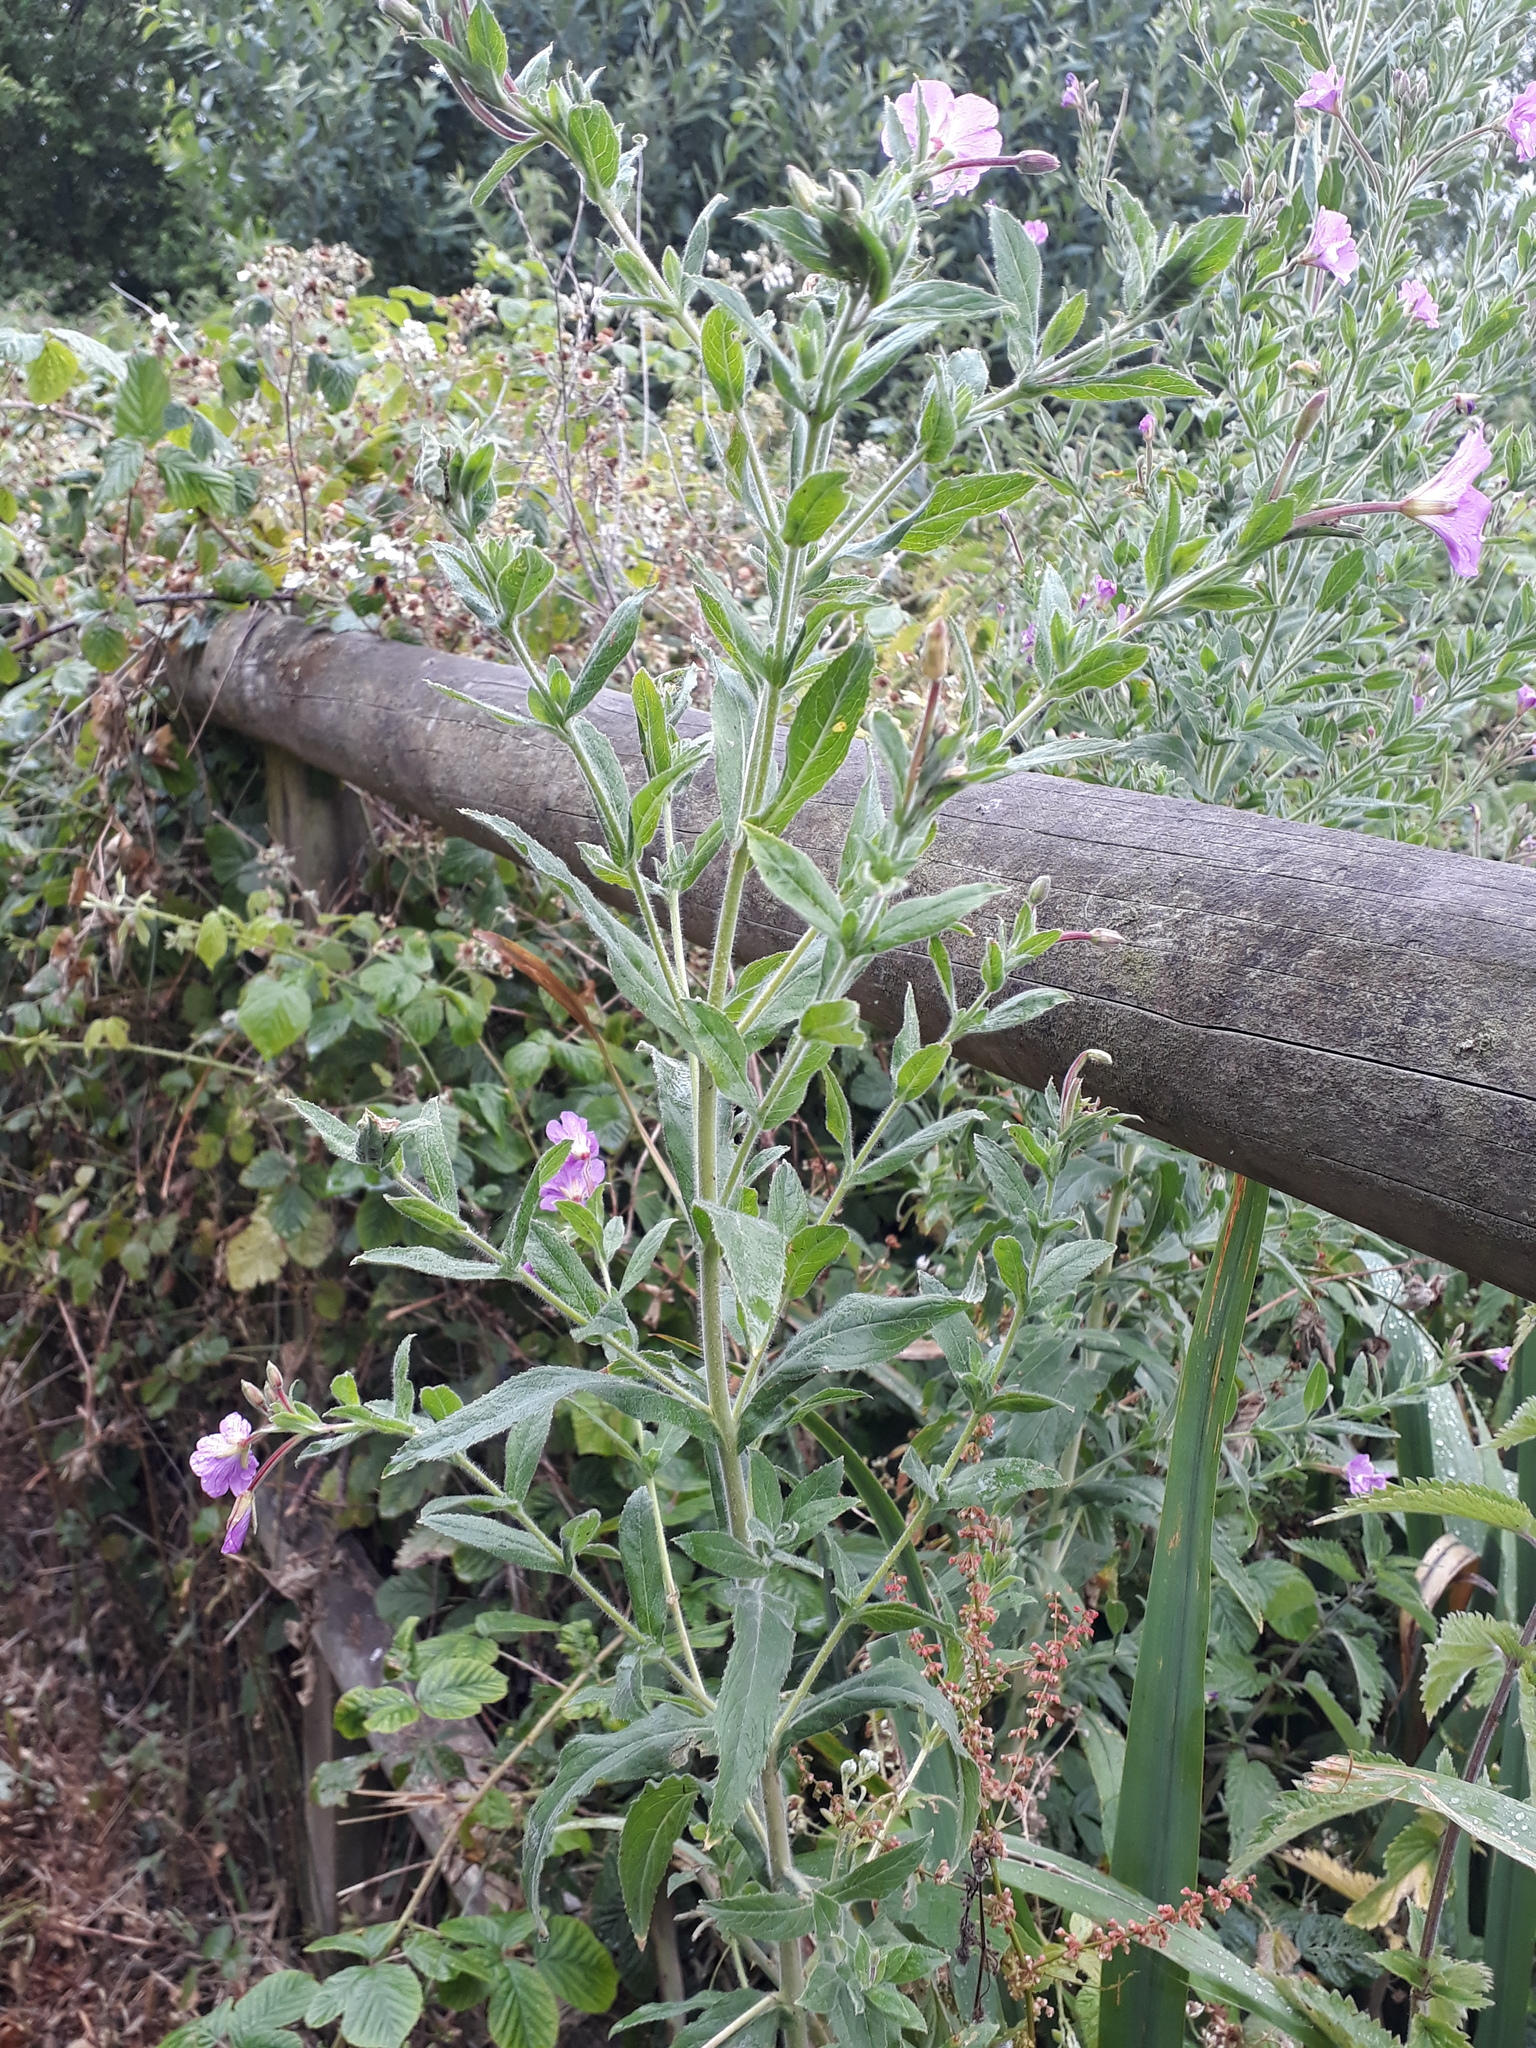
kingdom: Plantae
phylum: Tracheophyta
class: Magnoliopsida
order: Myrtales
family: Onagraceae
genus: Epilobium
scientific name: Epilobium hirsutum
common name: Great willowherb
